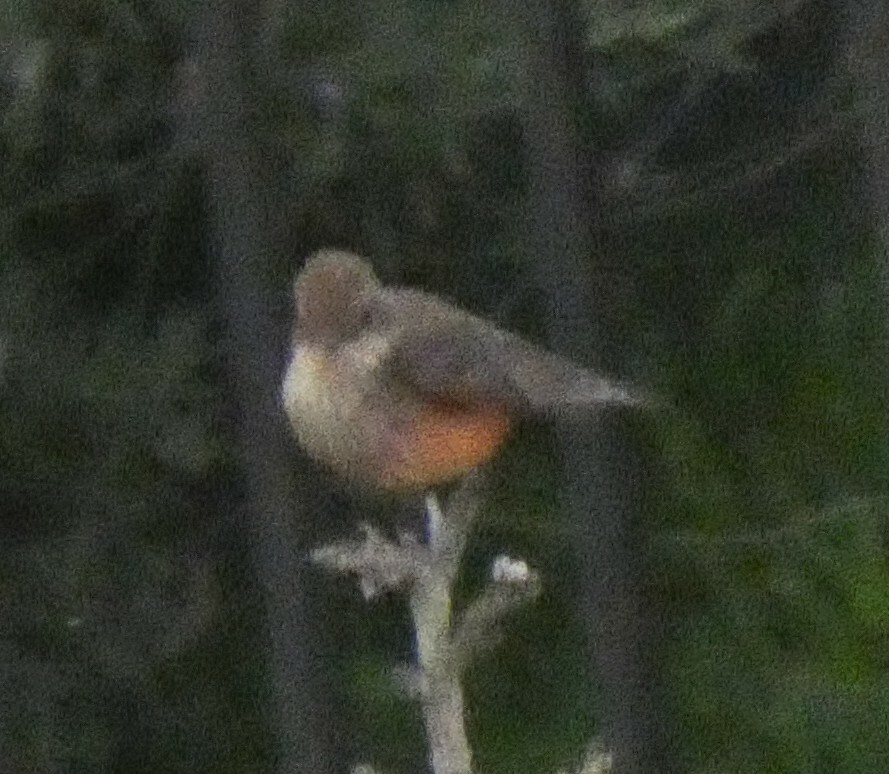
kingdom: Animalia
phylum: Chordata
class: Aves
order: Passeriformes
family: Tyrannidae
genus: Pyrocephalus
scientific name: Pyrocephalus rubinus
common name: Vermilion flycatcher
